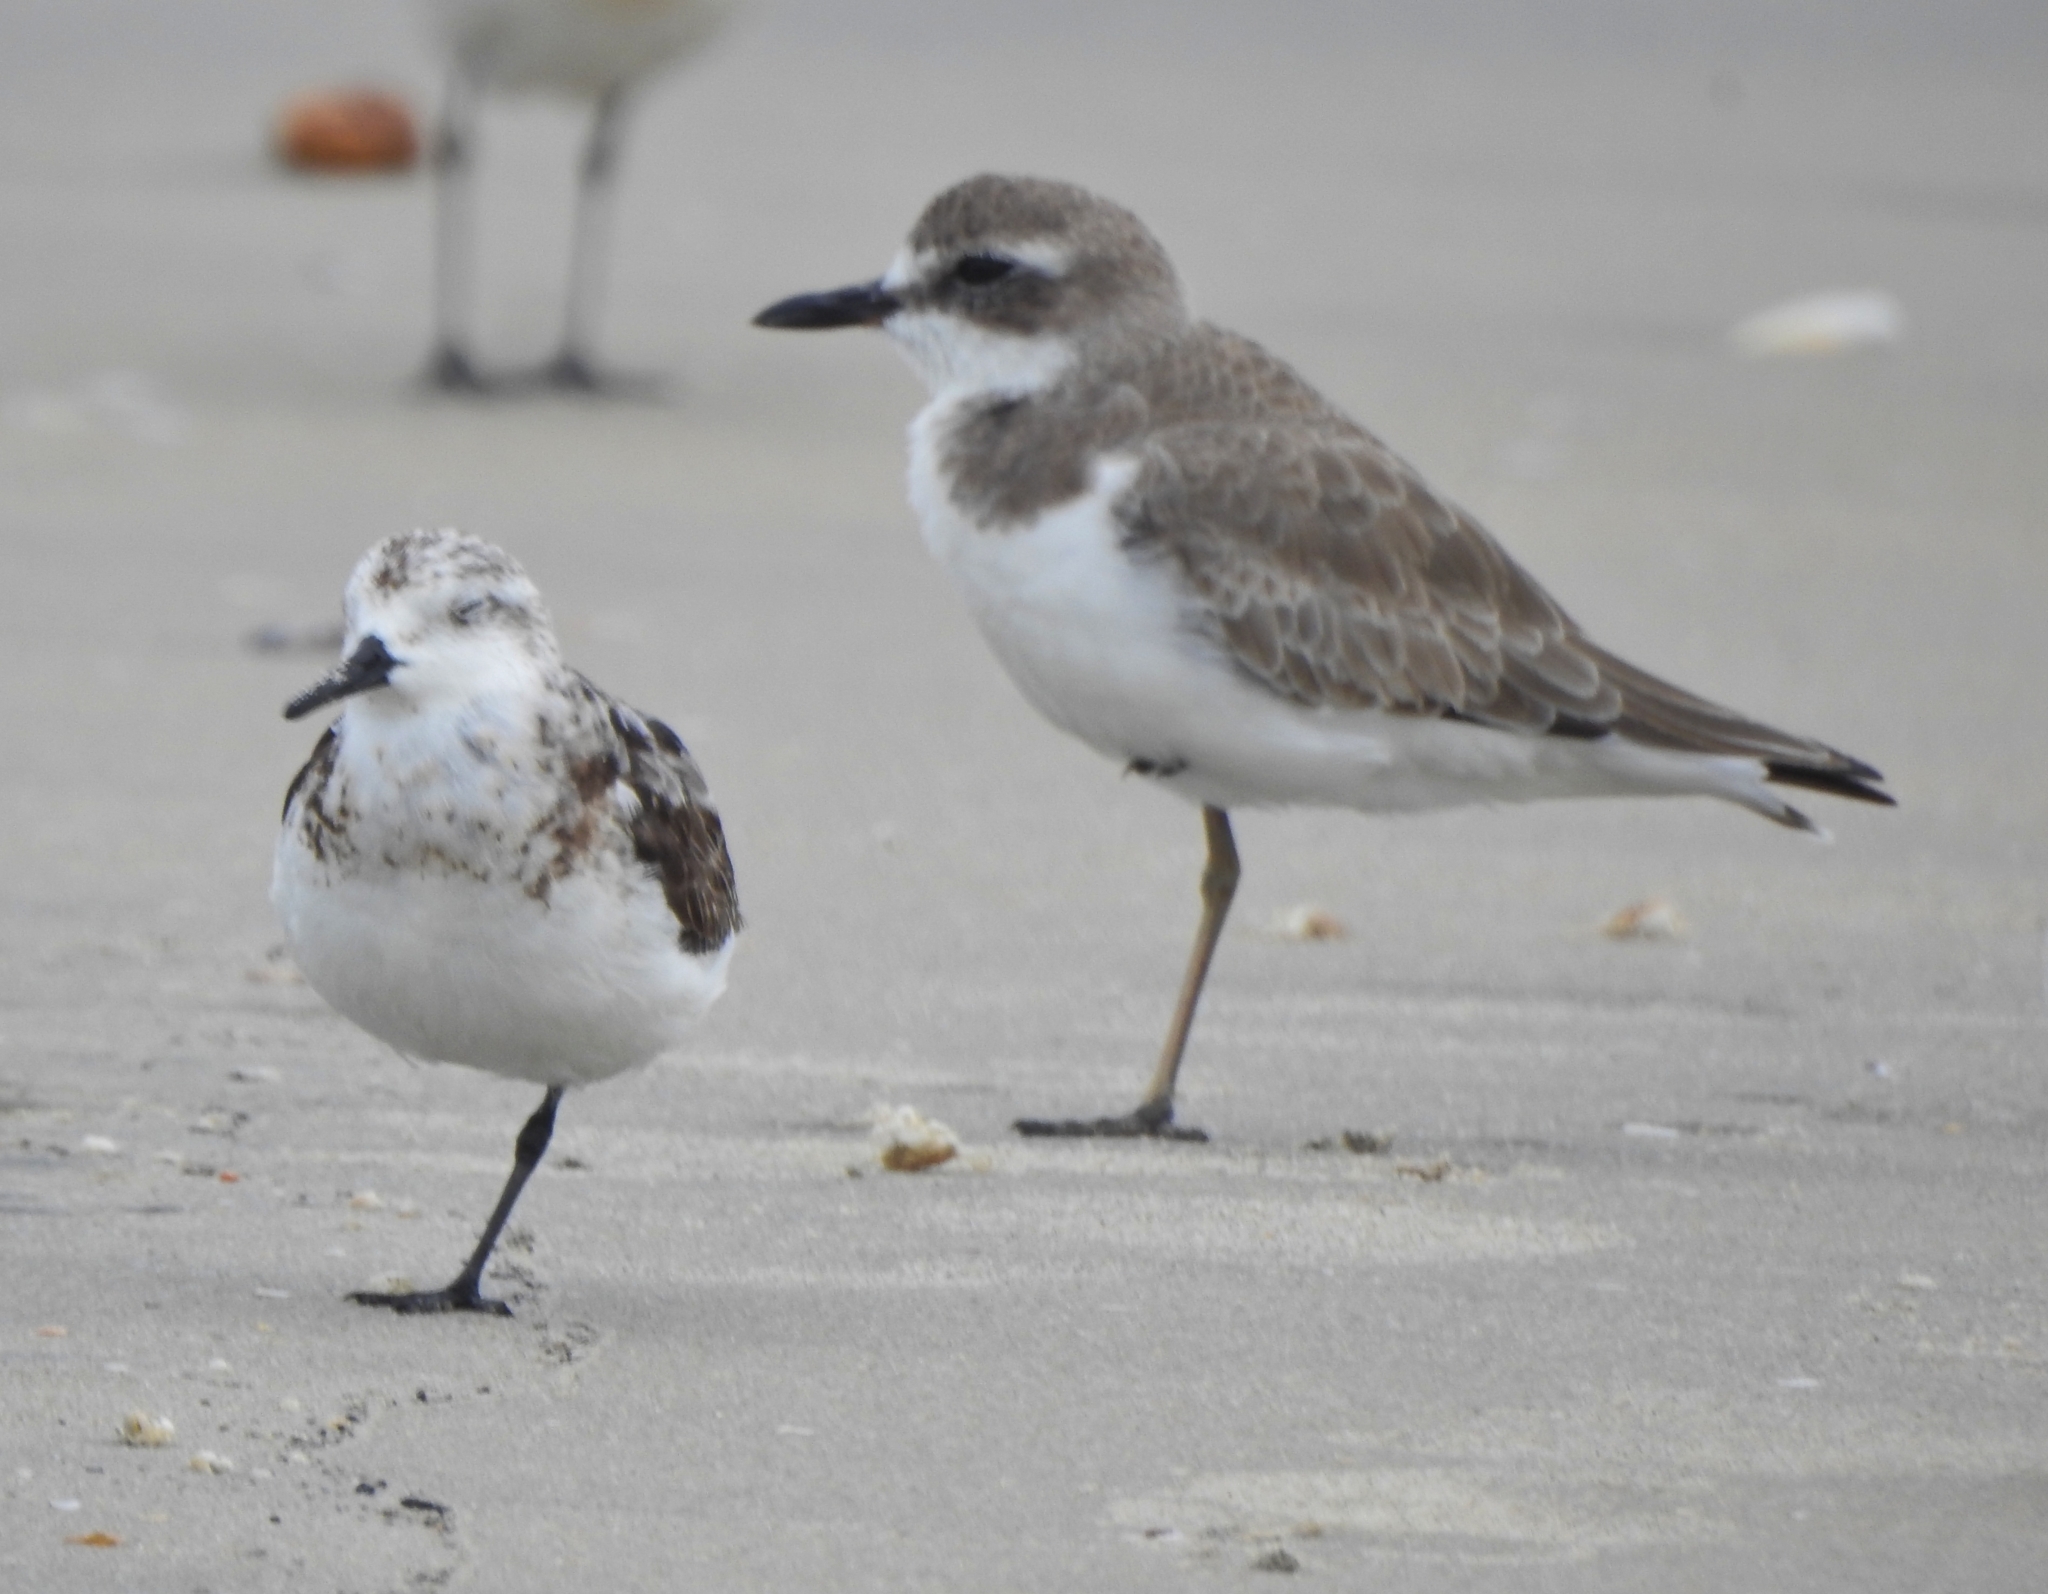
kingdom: Animalia
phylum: Chordata
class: Aves
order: Charadriiformes
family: Charadriidae
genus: Charadrius
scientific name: Charadrius leschenaultii
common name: Greater sand plover
